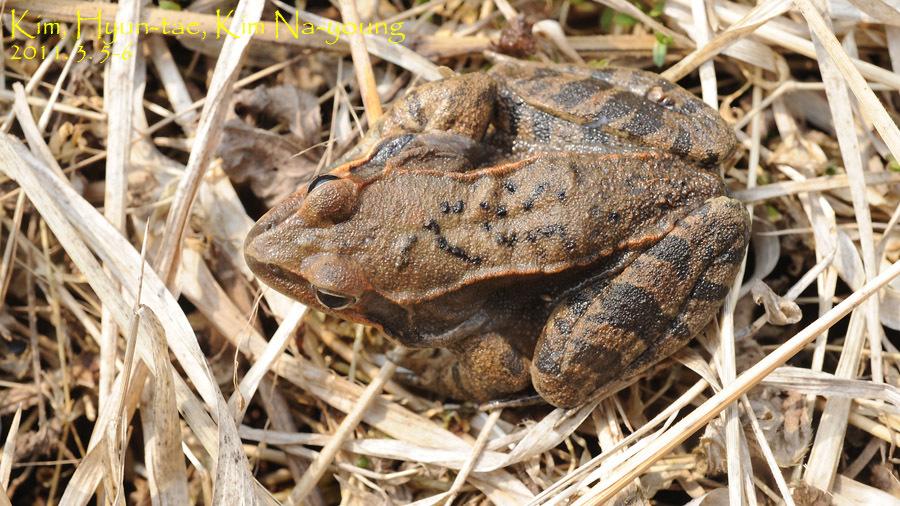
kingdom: Animalia
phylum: Chordata
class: Amphibia
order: Anura
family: Ranidae
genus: Rana
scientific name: Rana uenoi
